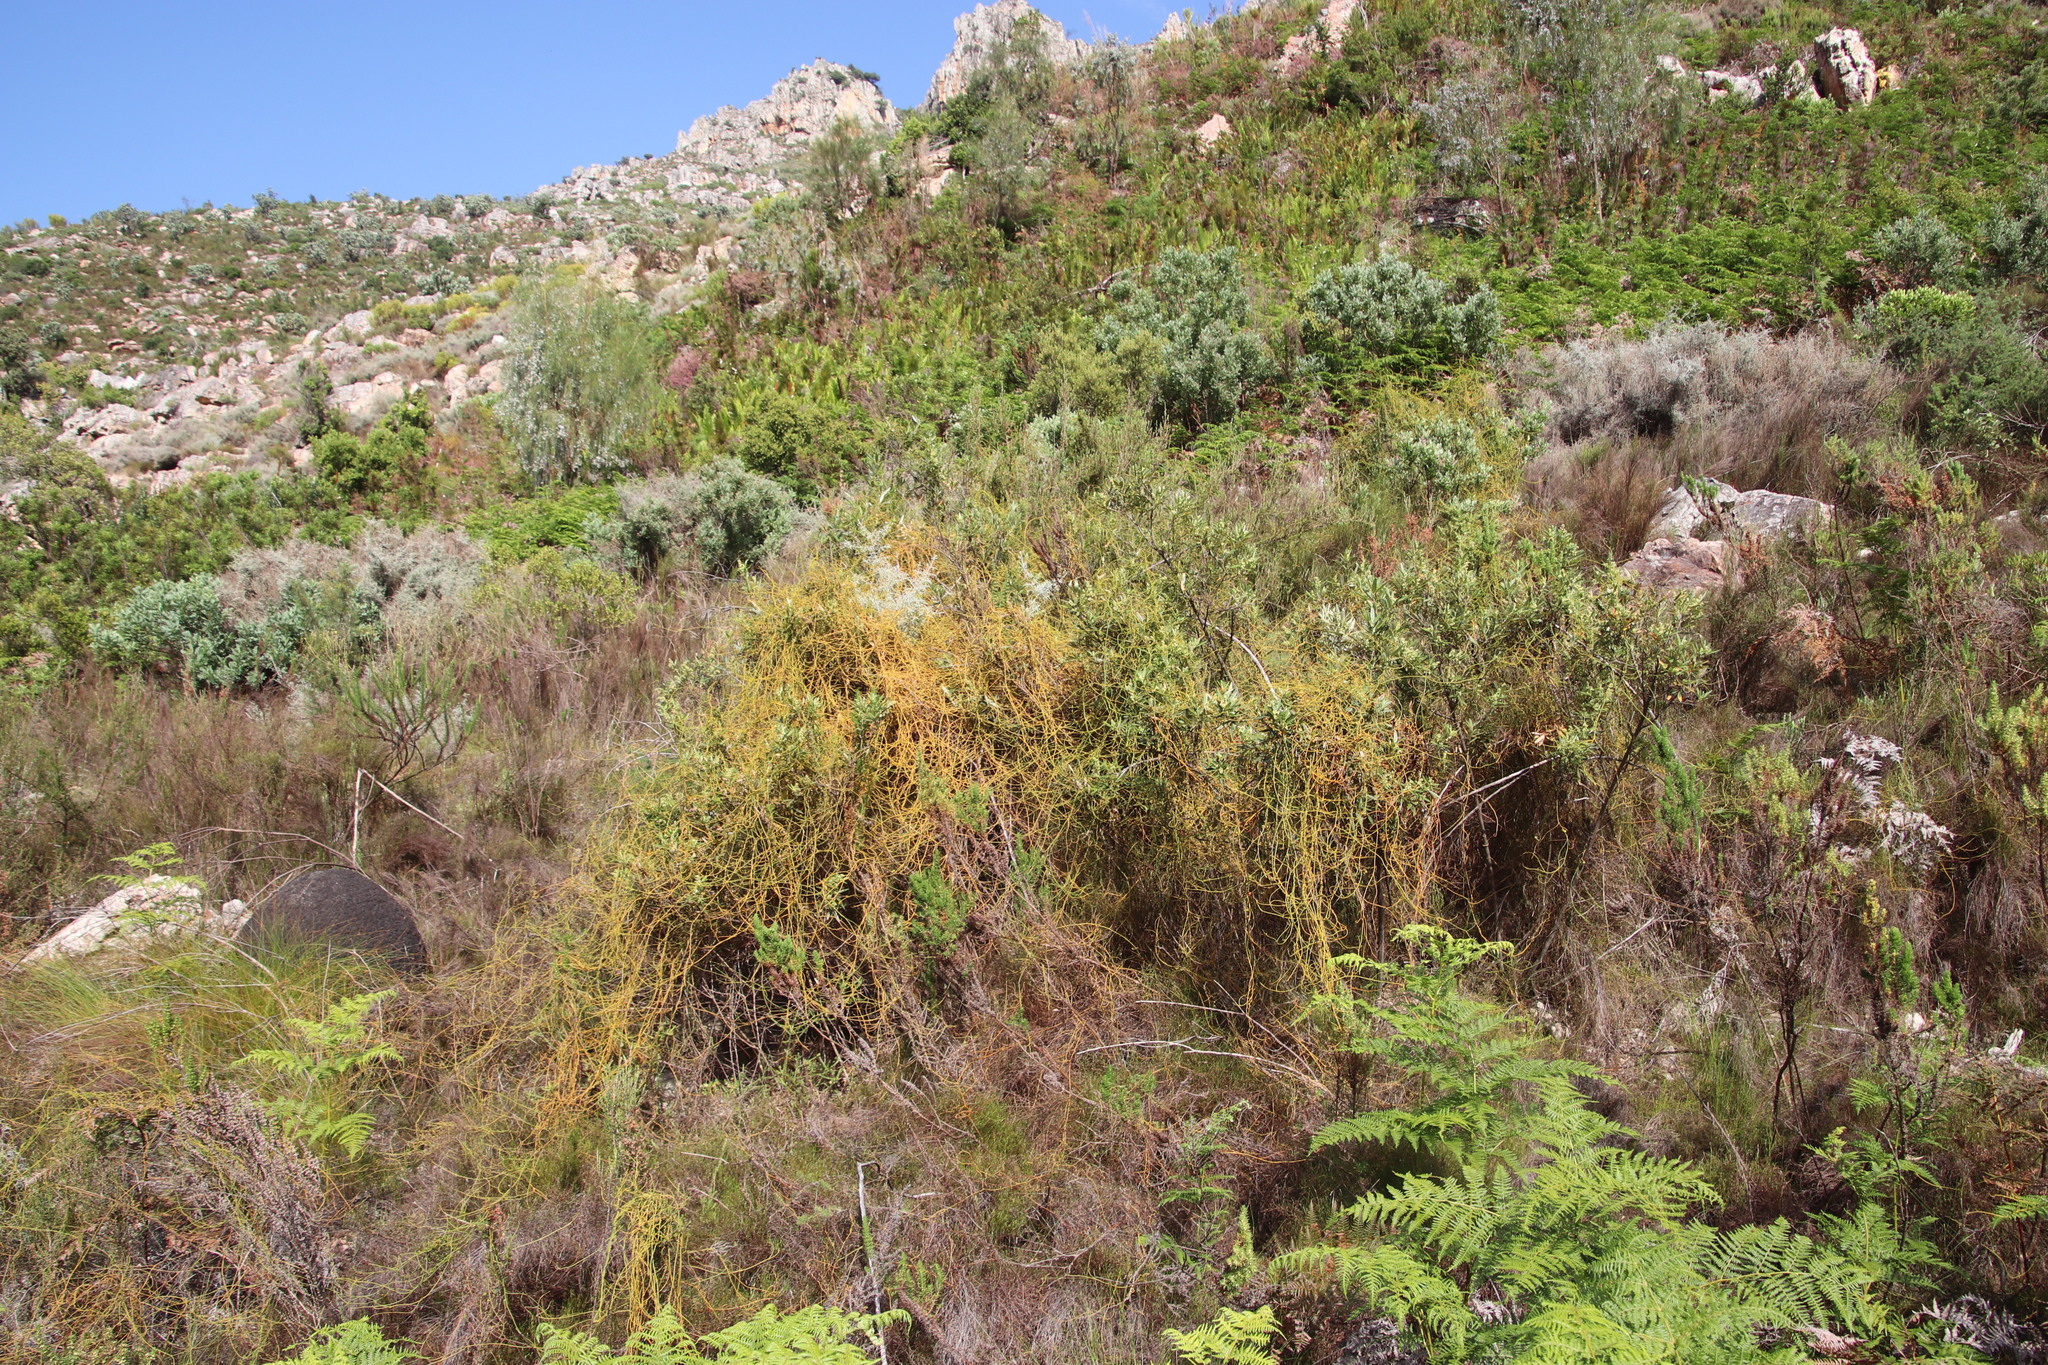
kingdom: Plantae
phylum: Tracheophyta
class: Magnoliopsida
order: Laurales
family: Lauraceae
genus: Cassytha
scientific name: Cassytha ciliolata
